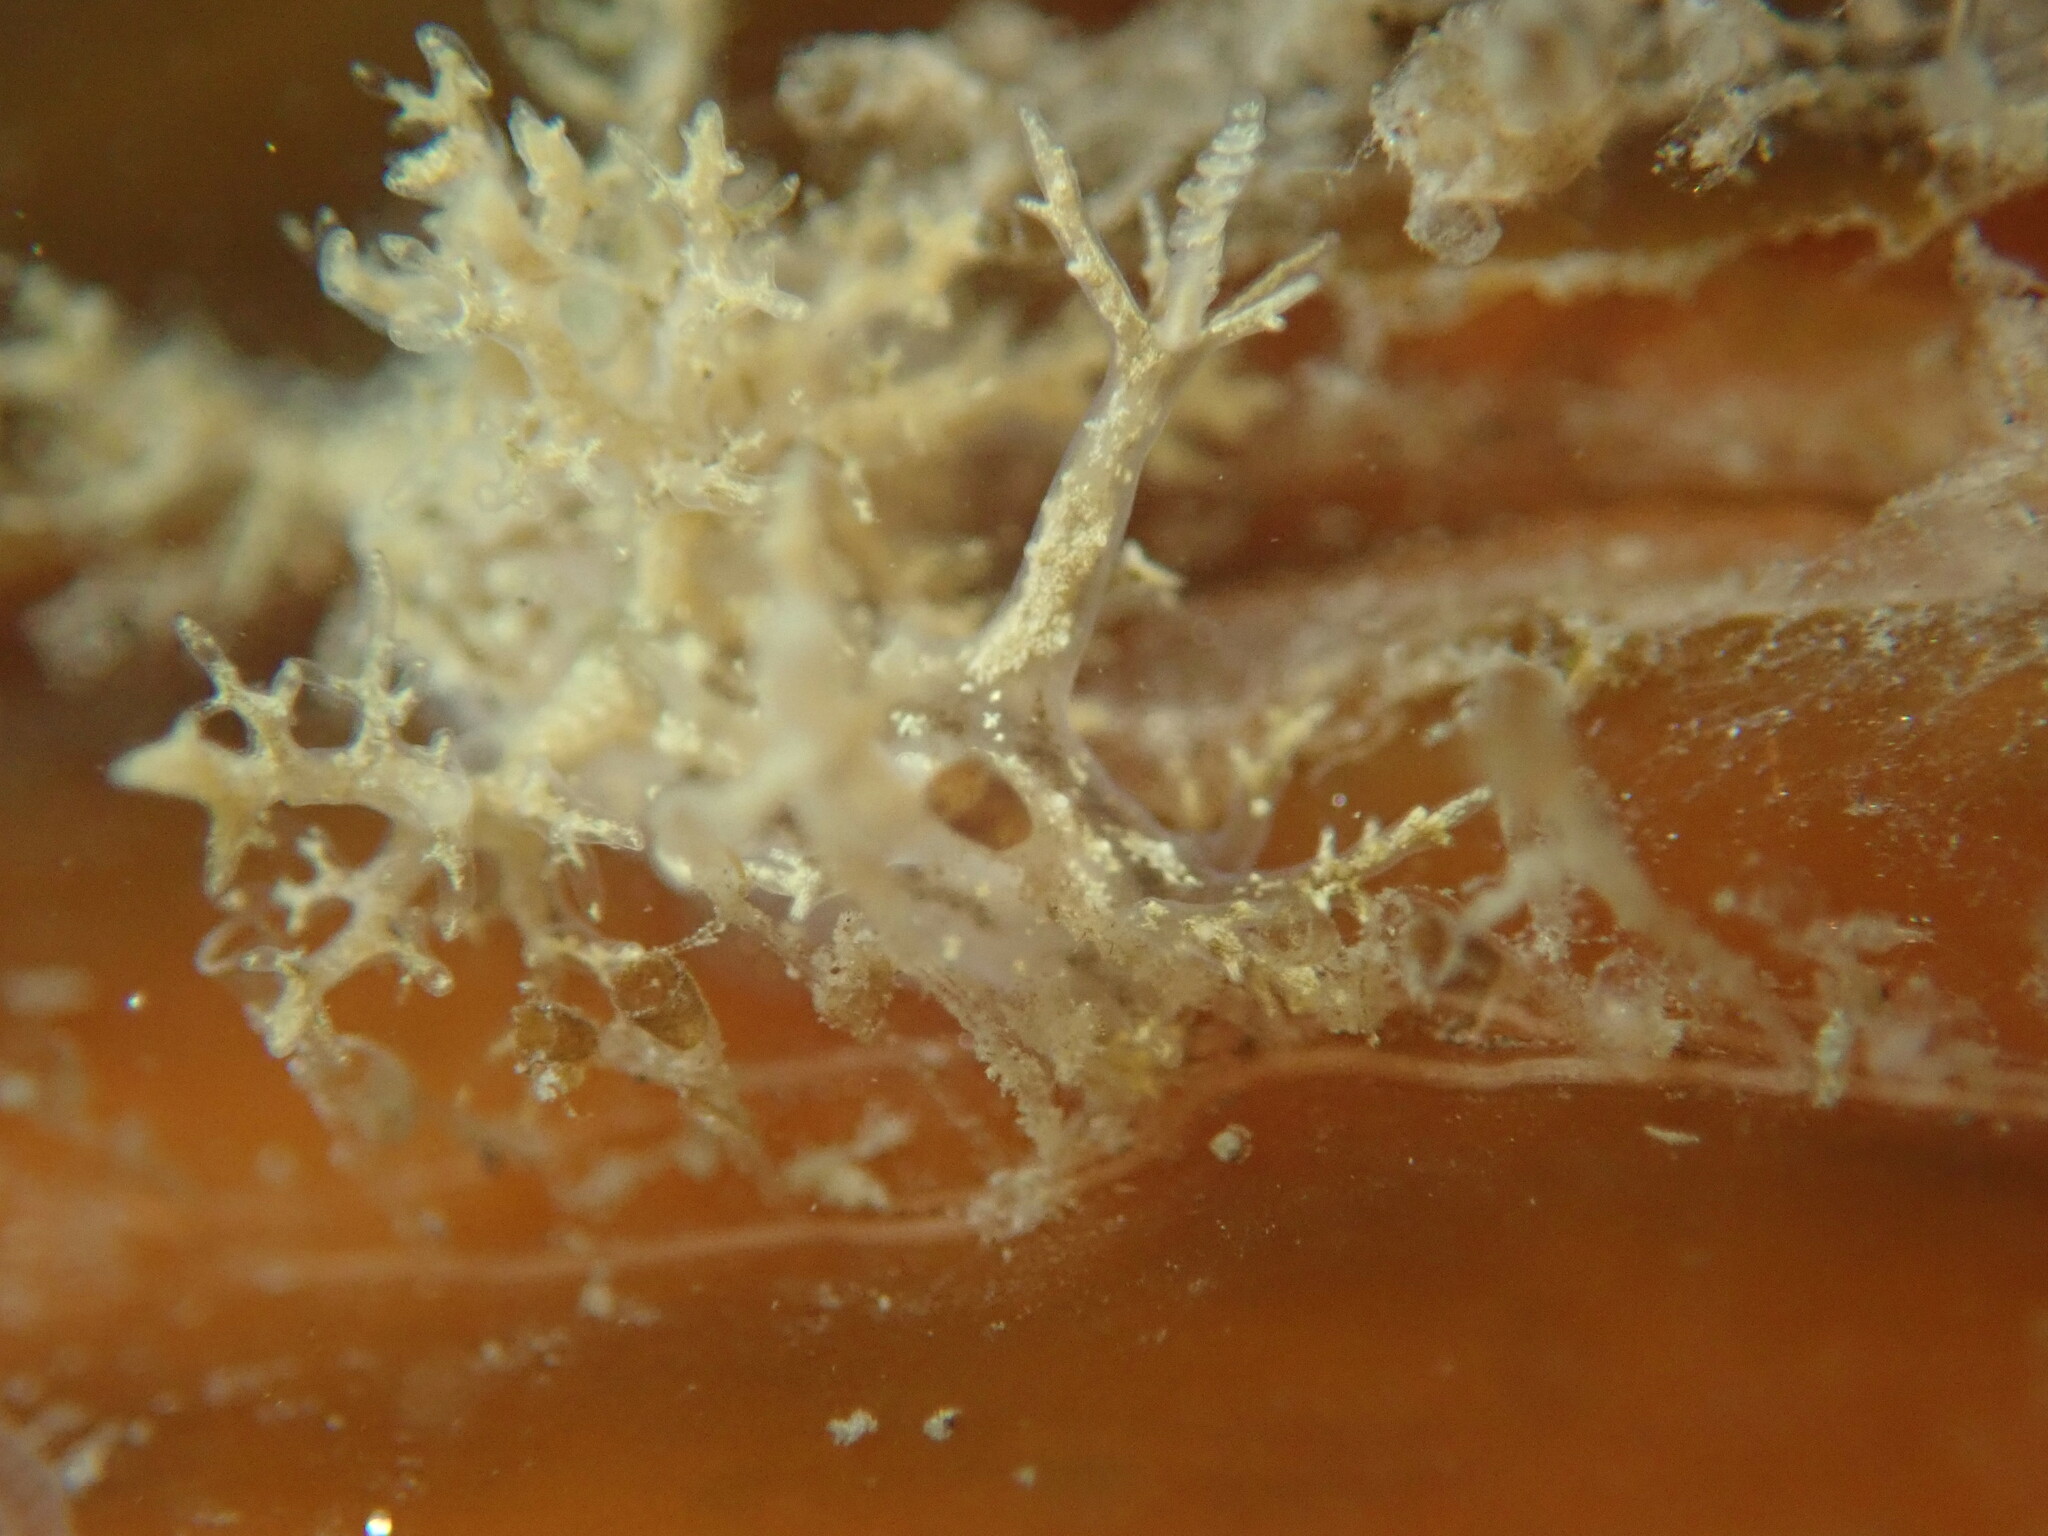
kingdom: Animalia
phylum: Mollusca
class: Gastropoda
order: Nudibranchia
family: Dendronotidae
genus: Dendronotus
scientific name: Dendronotus venustus
